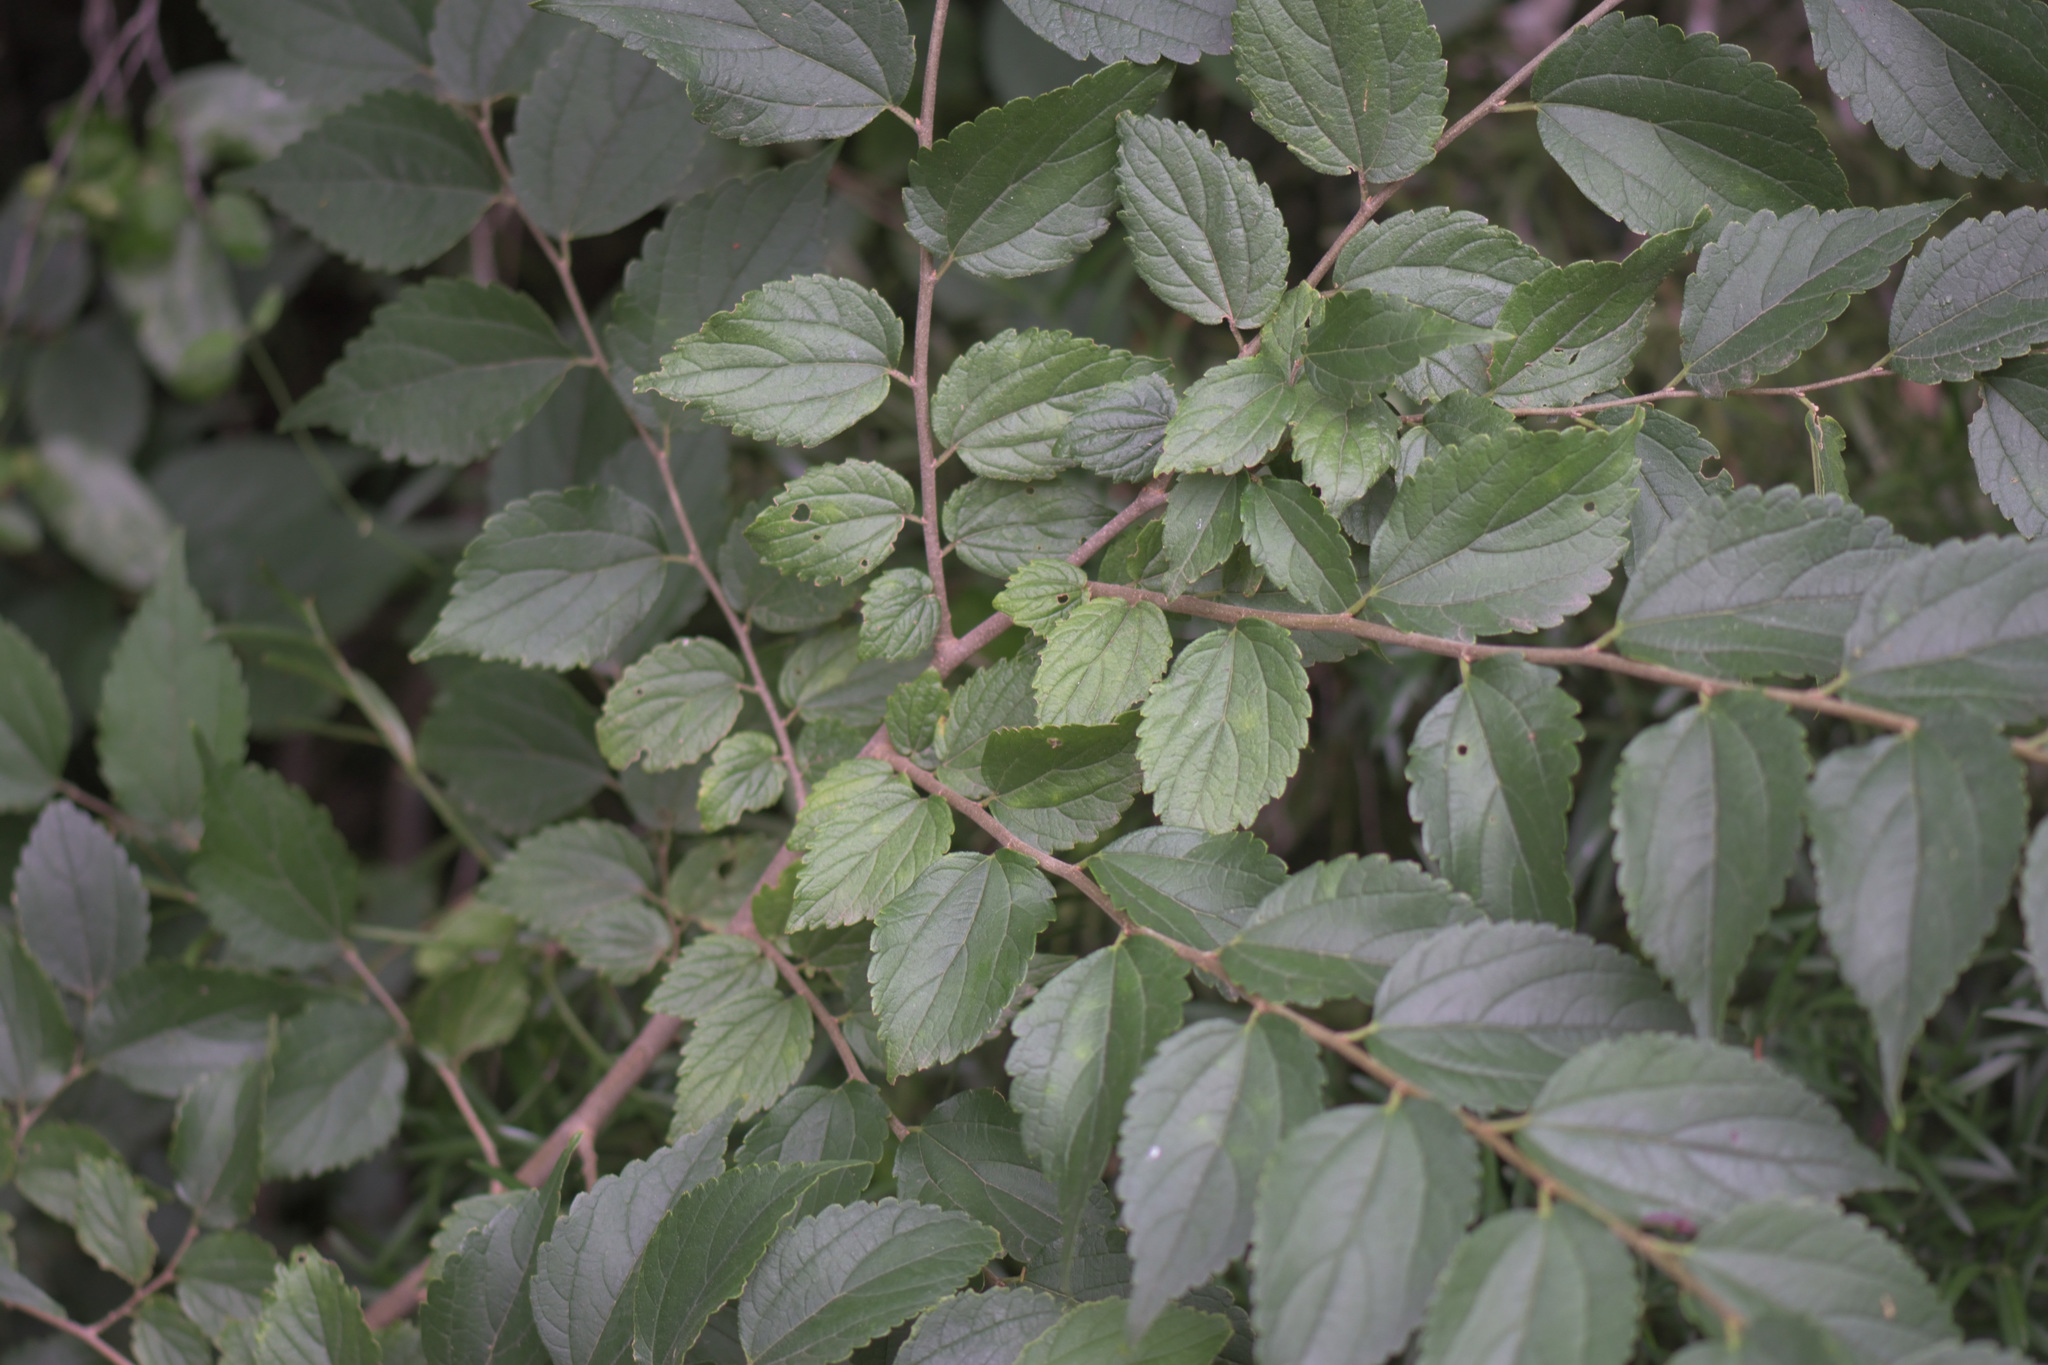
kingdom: Plantae
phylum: Tracheophyta
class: Magnoliopsida
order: Rosales
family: Cannabaceae
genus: Celtis
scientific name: Celtis africana
